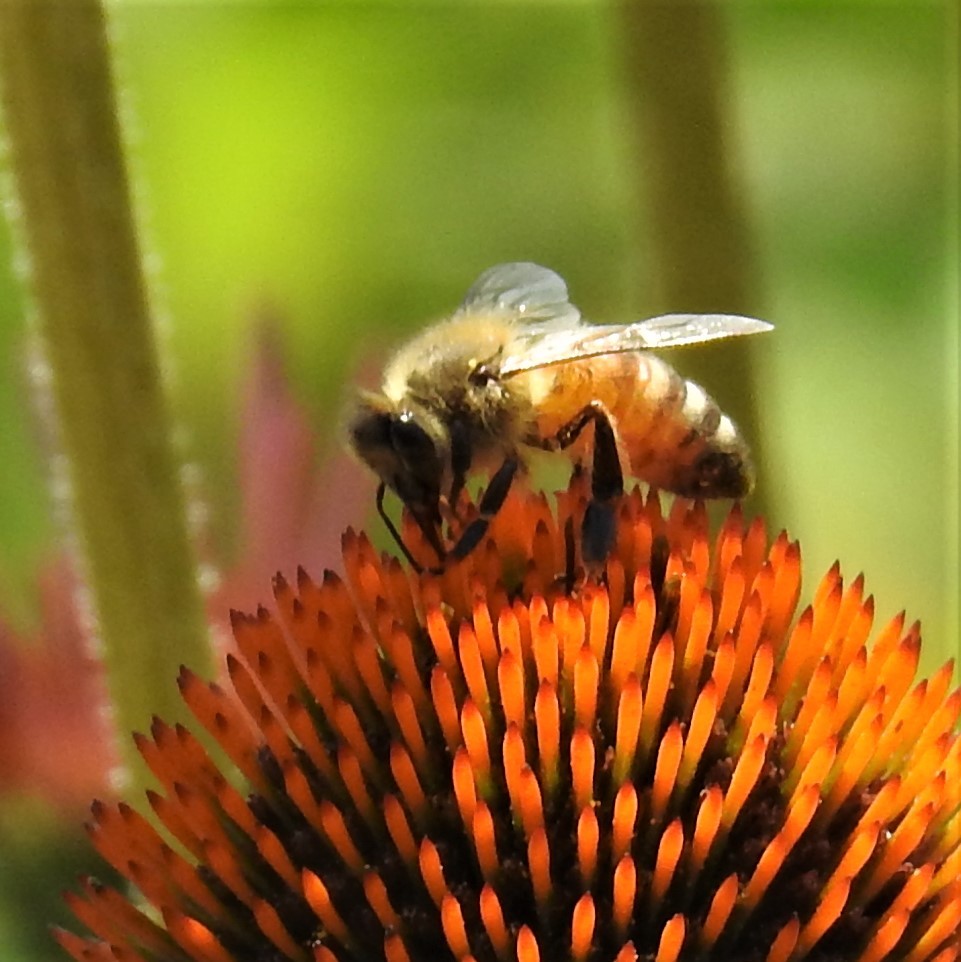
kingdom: Animalia
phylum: Arthropoda
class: Insecta
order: Hymenoptera
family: Apidae
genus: Apis
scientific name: Apis mellifera
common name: Honey bee
